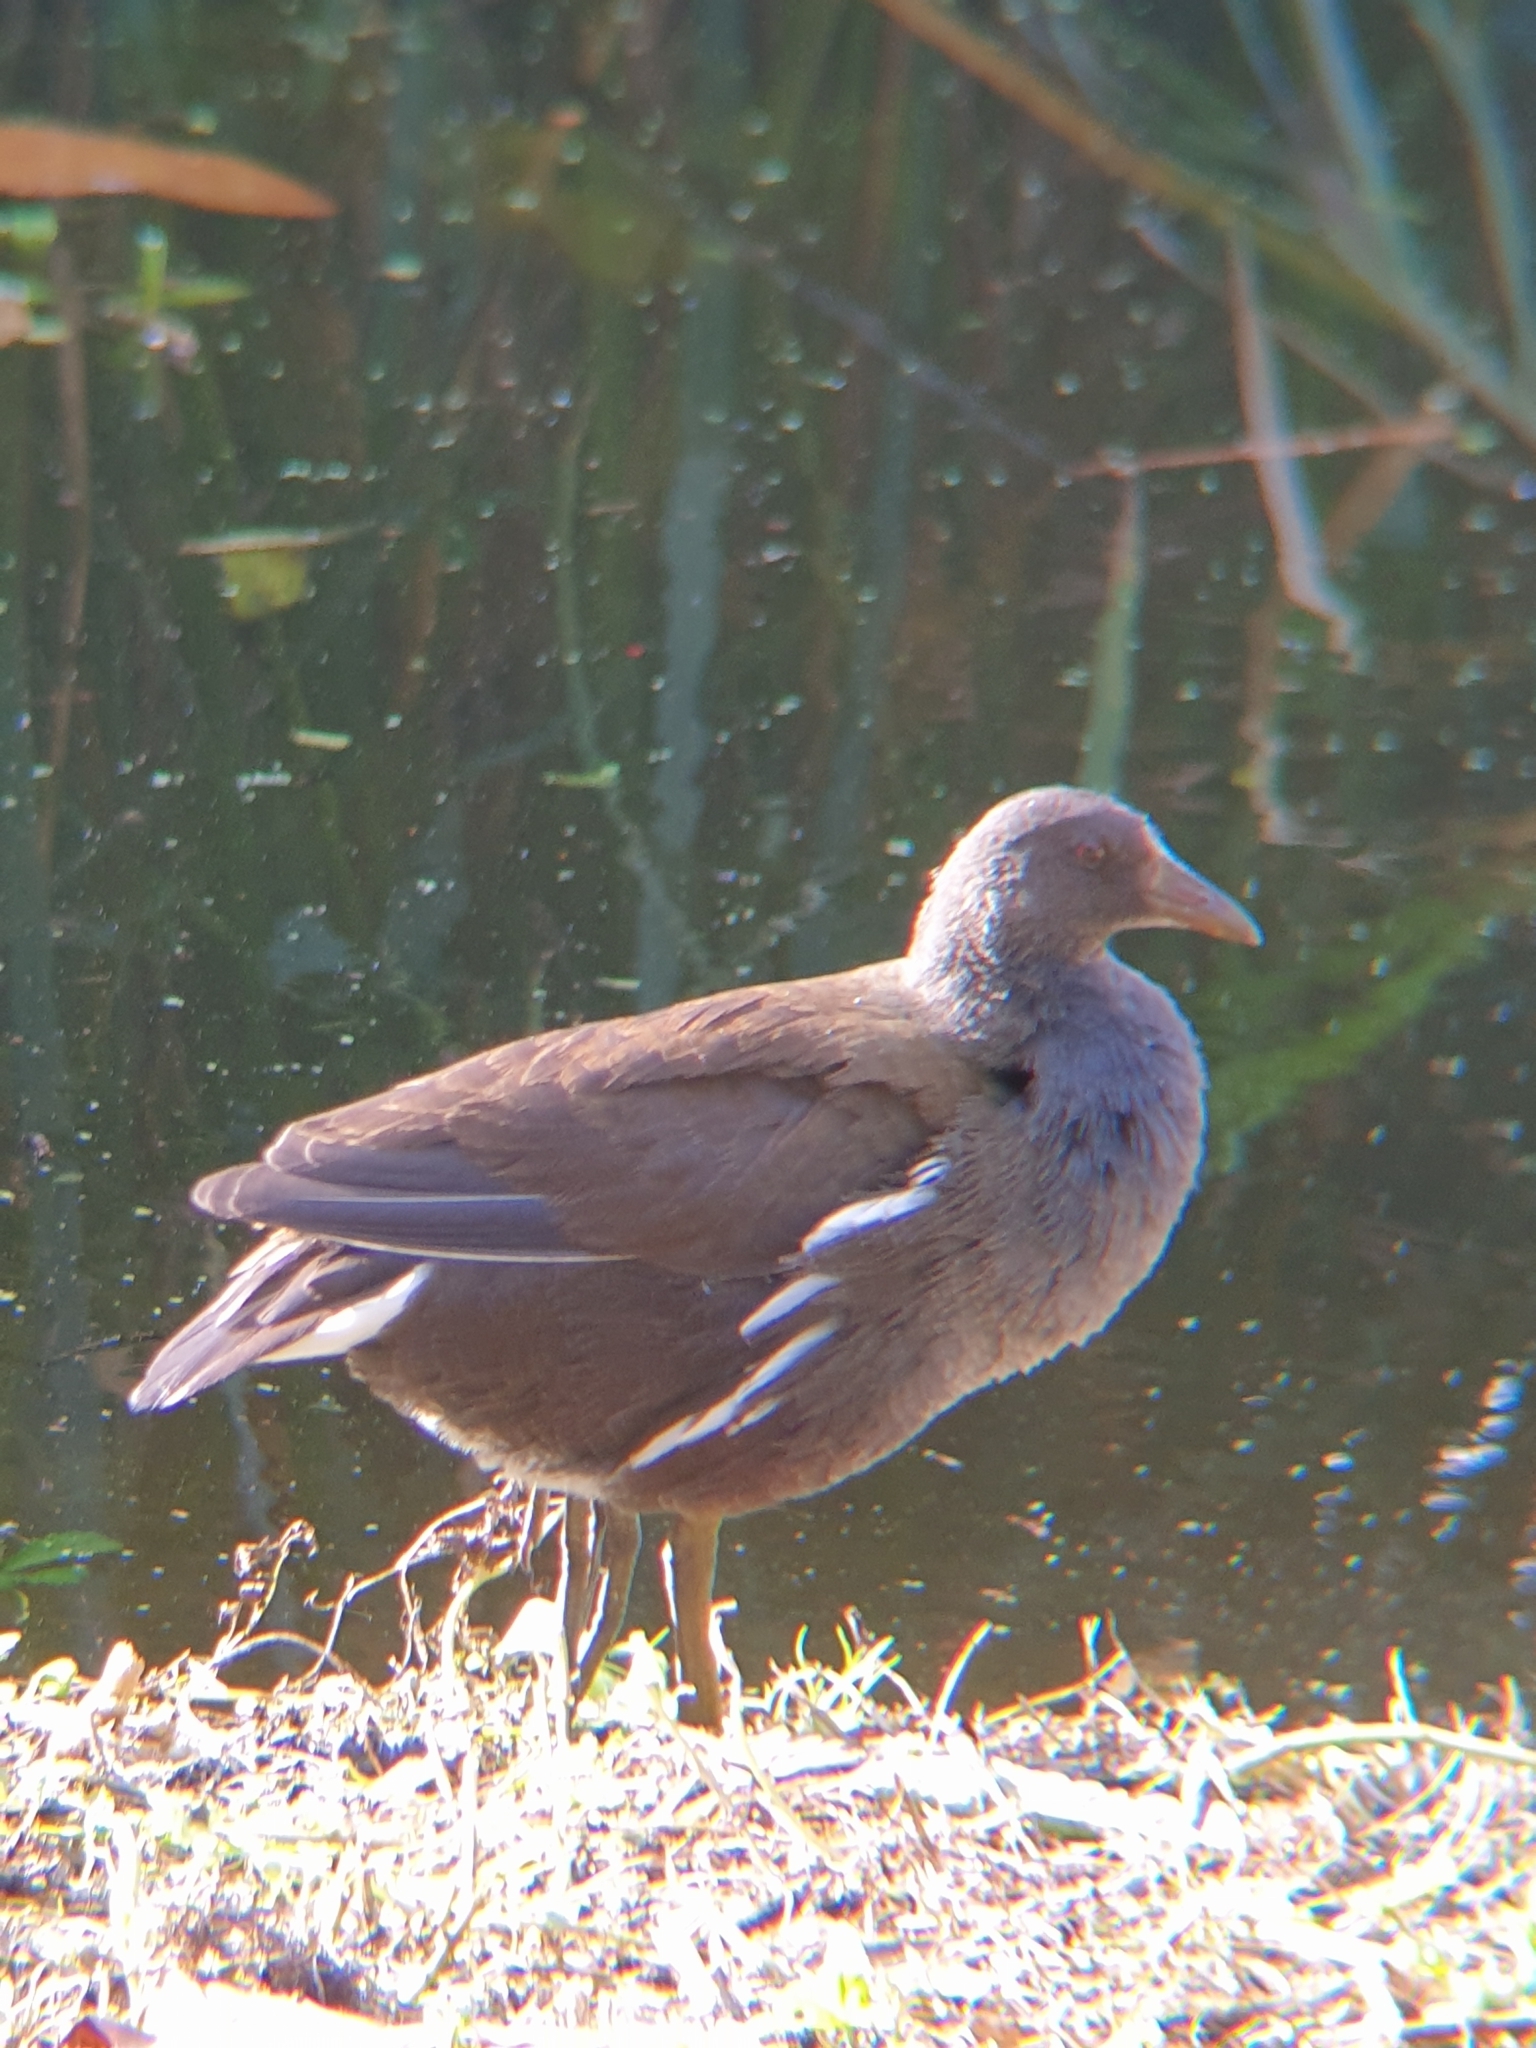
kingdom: Animalia
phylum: Chordata
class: Aves
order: Gruiformes
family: Rallidae
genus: Gallinula
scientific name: Gallinula chloropus
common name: Common moorhen
